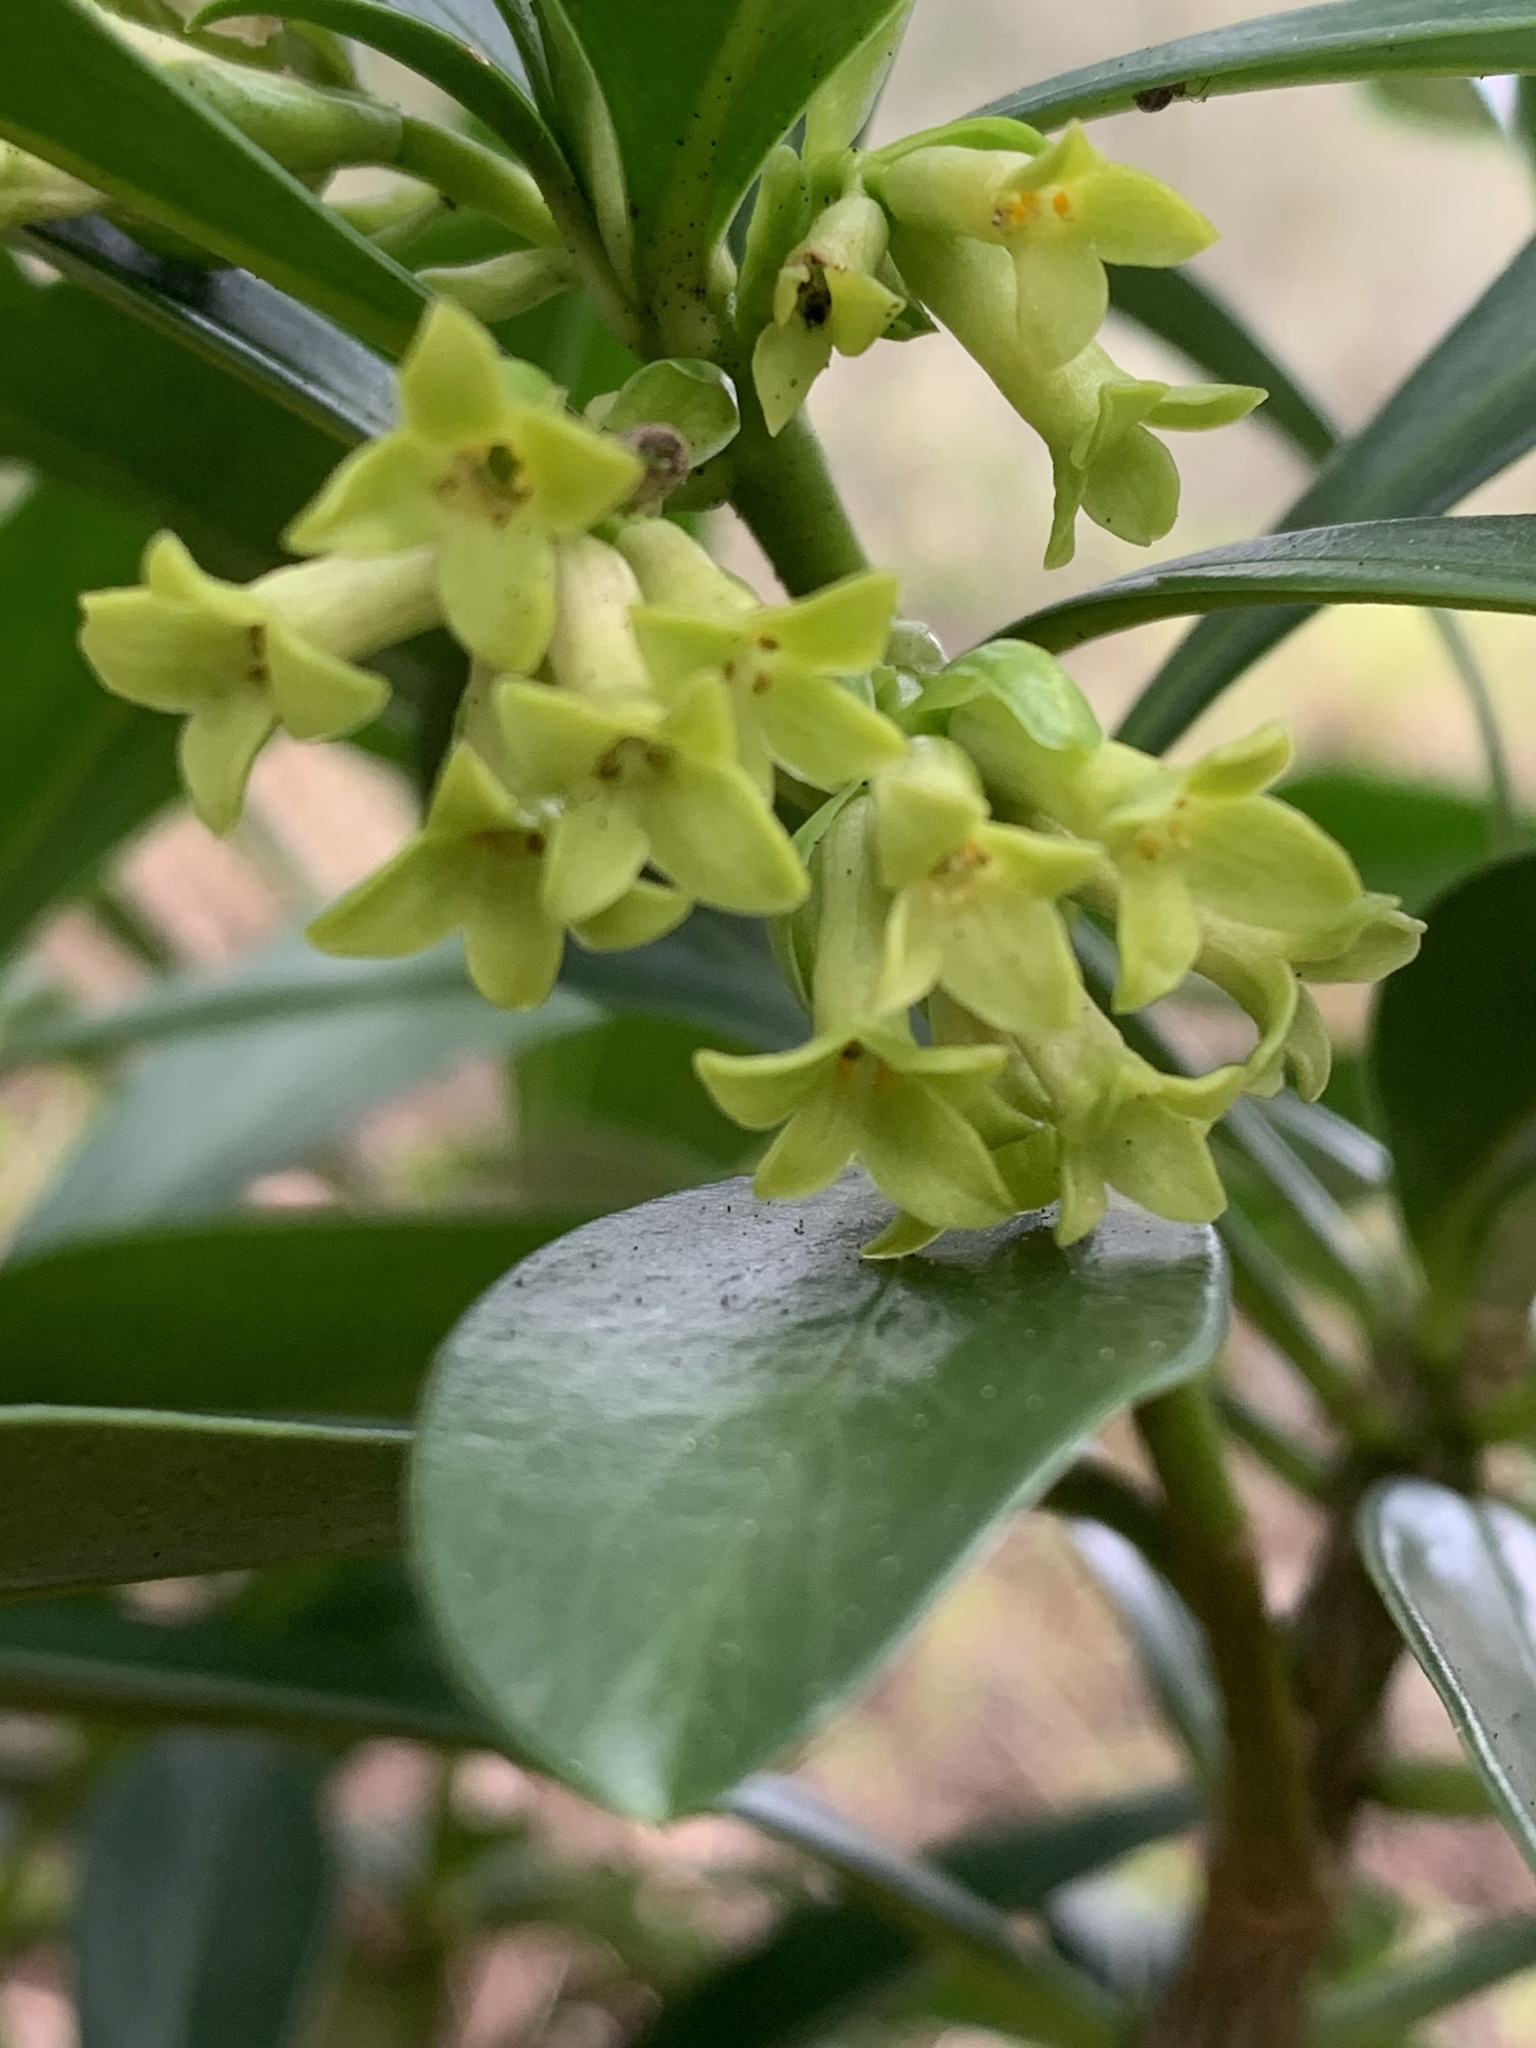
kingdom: Plantae
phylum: Tracheophyta
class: Magnoliopsida
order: Malvales
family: Thymelaeaceae
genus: Daphne
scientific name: Daphne laureola
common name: Spurge-laurel
